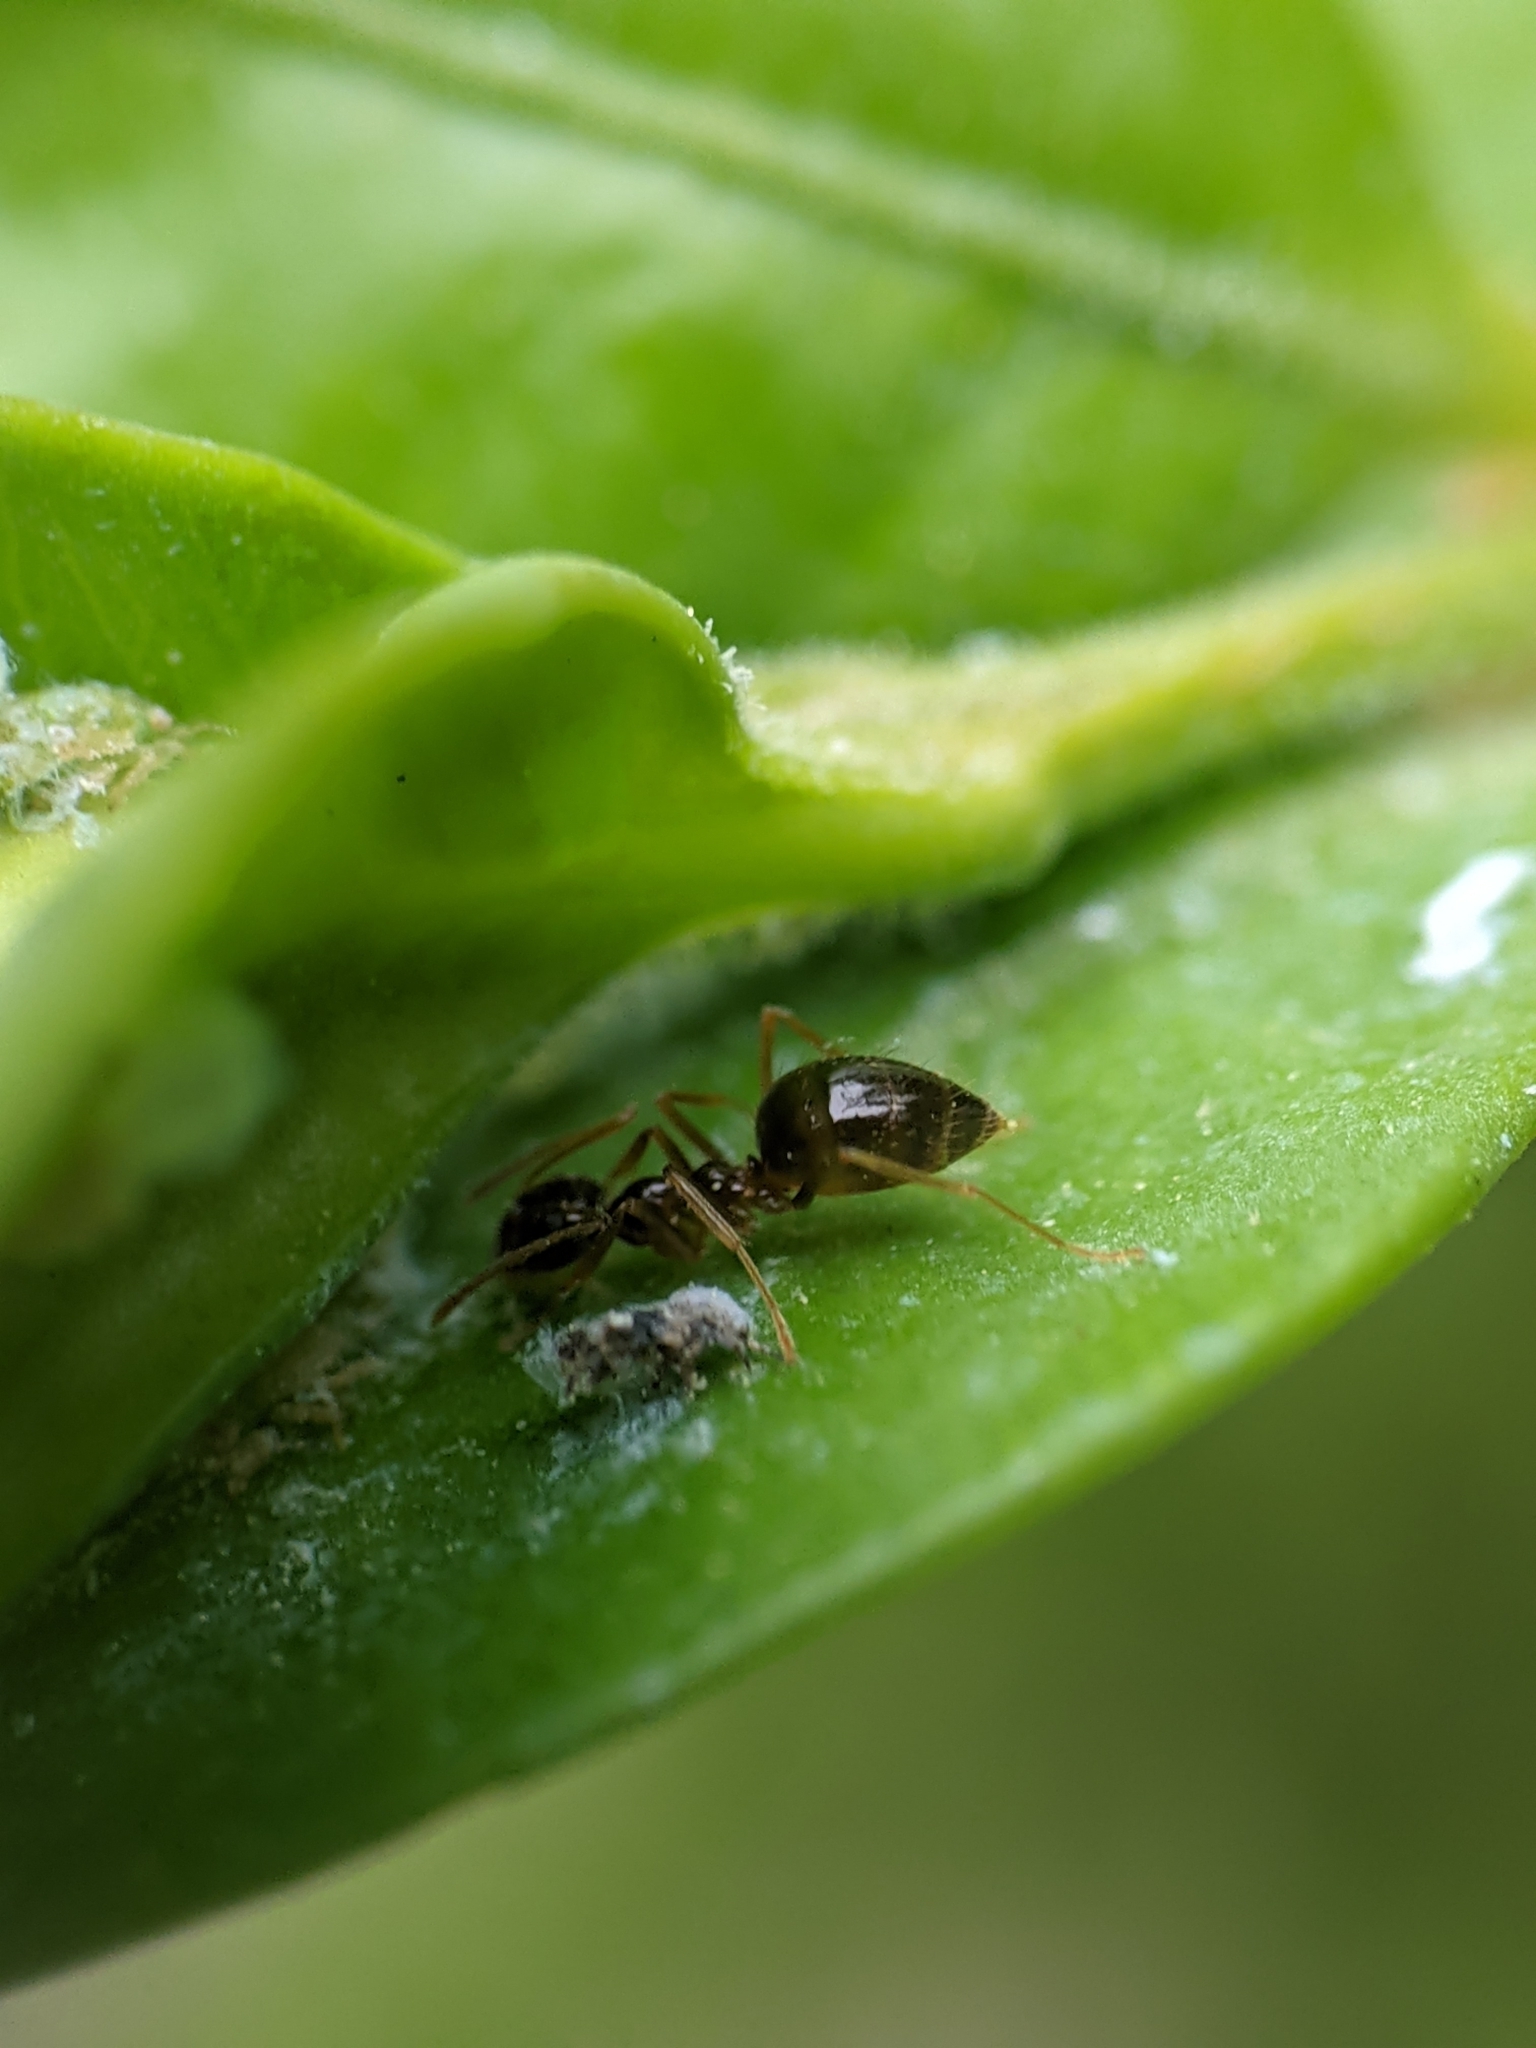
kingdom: Animalia
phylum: Arthropoda
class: Insecta
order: Hymenoptera
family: Formicidae
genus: Prenolepis
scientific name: Prenolepis imparis
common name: Small honey ant
